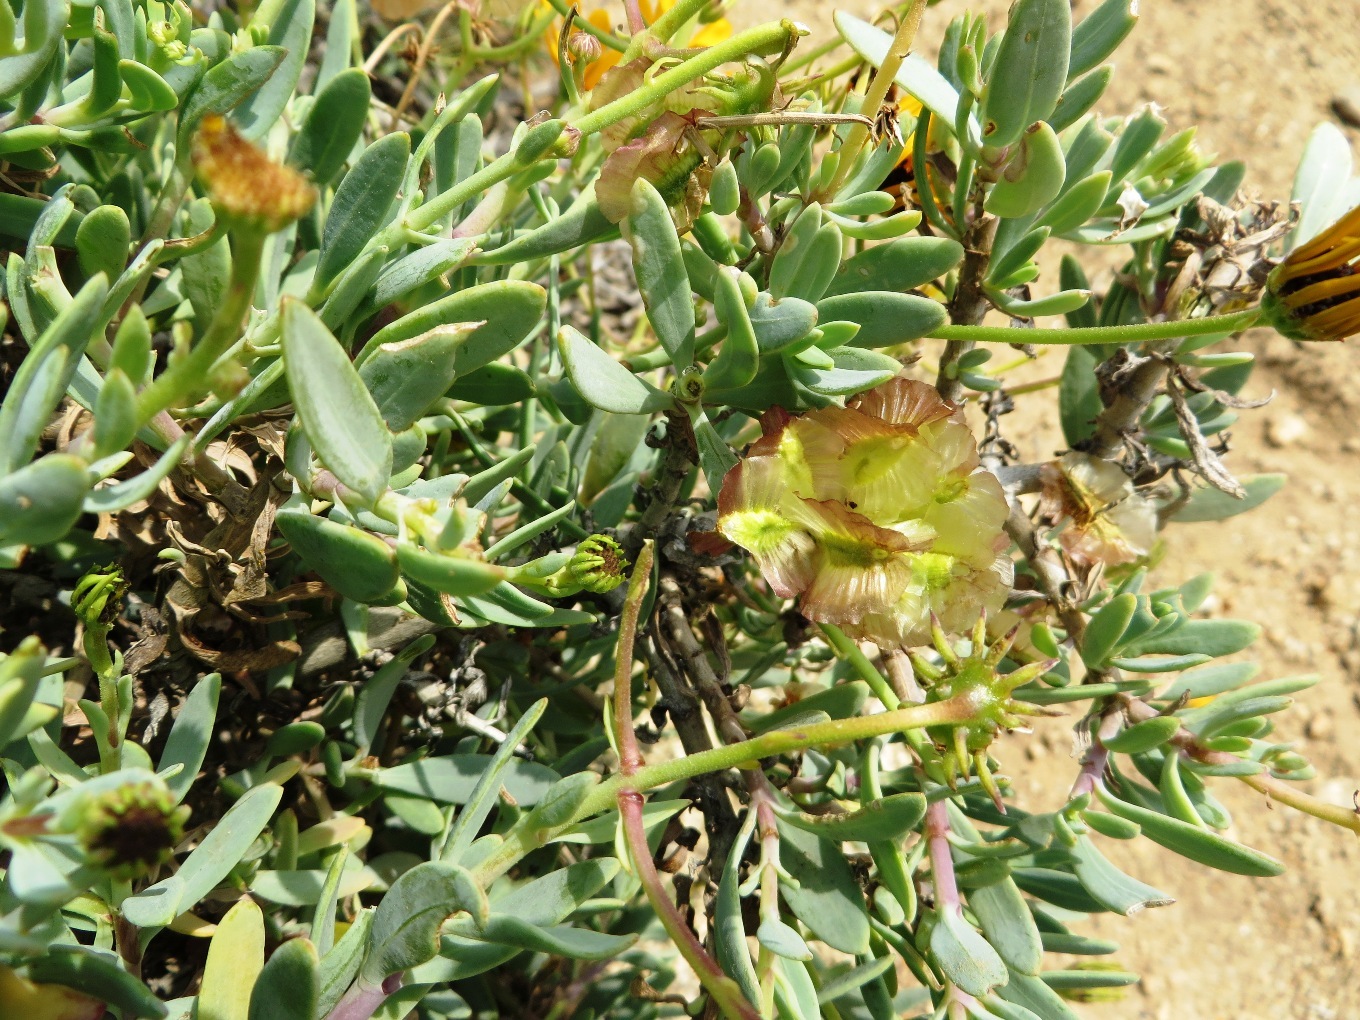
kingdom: Plantae
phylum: Tracheophyta
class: Magnoliopsida
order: Asterales
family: Asteraceae
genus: Osteospermum
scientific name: Osteospermum oppositifolium
